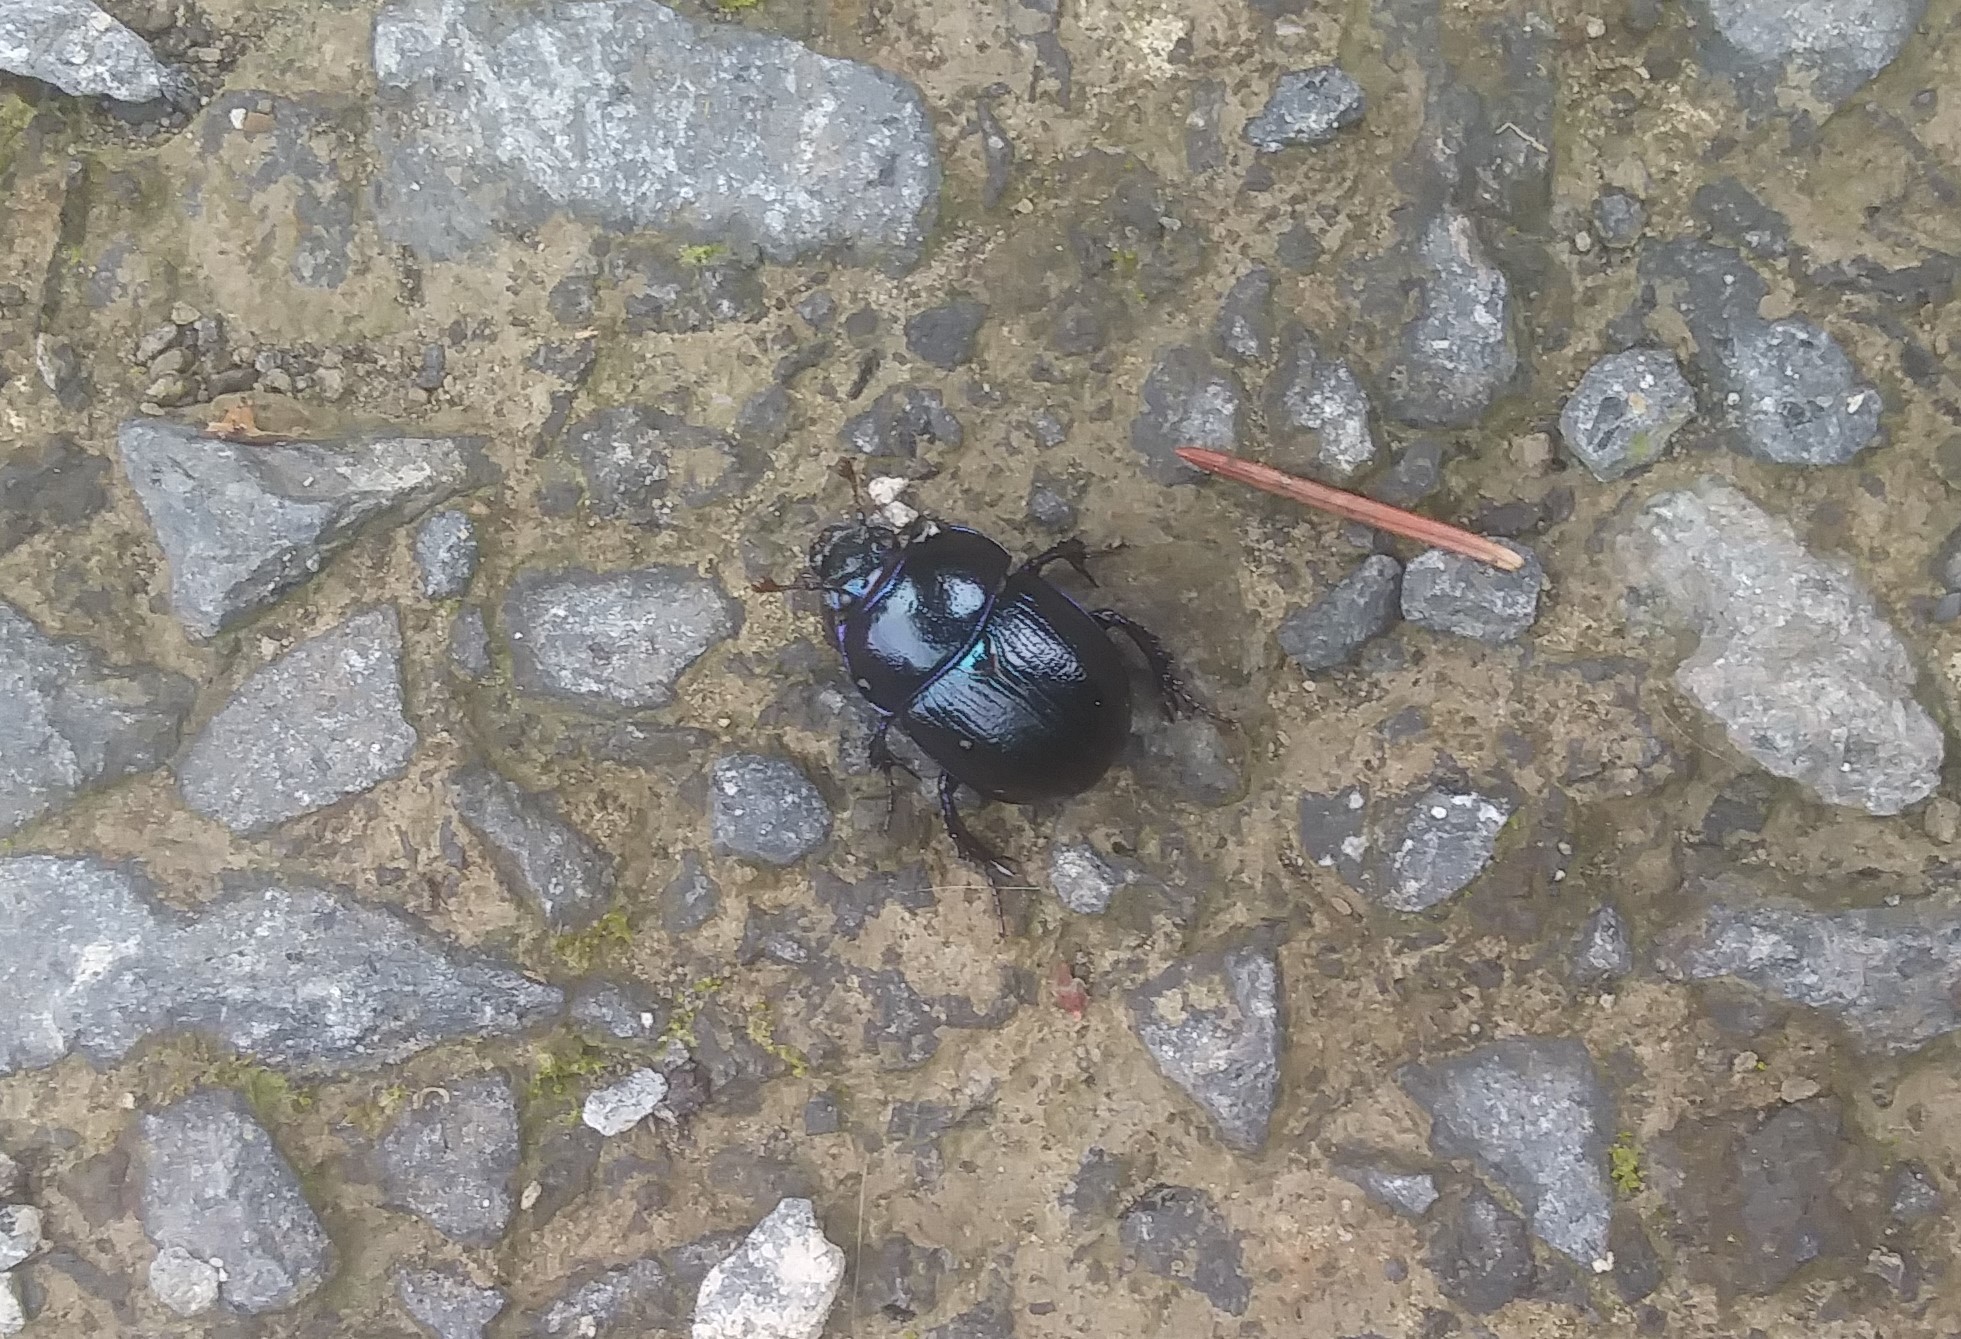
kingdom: Animalia
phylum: Arthropoda
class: Insecta
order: Coleoptera
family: Geotrupidae
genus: Anoplotrupes
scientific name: Anoplotrupes stercorosus
